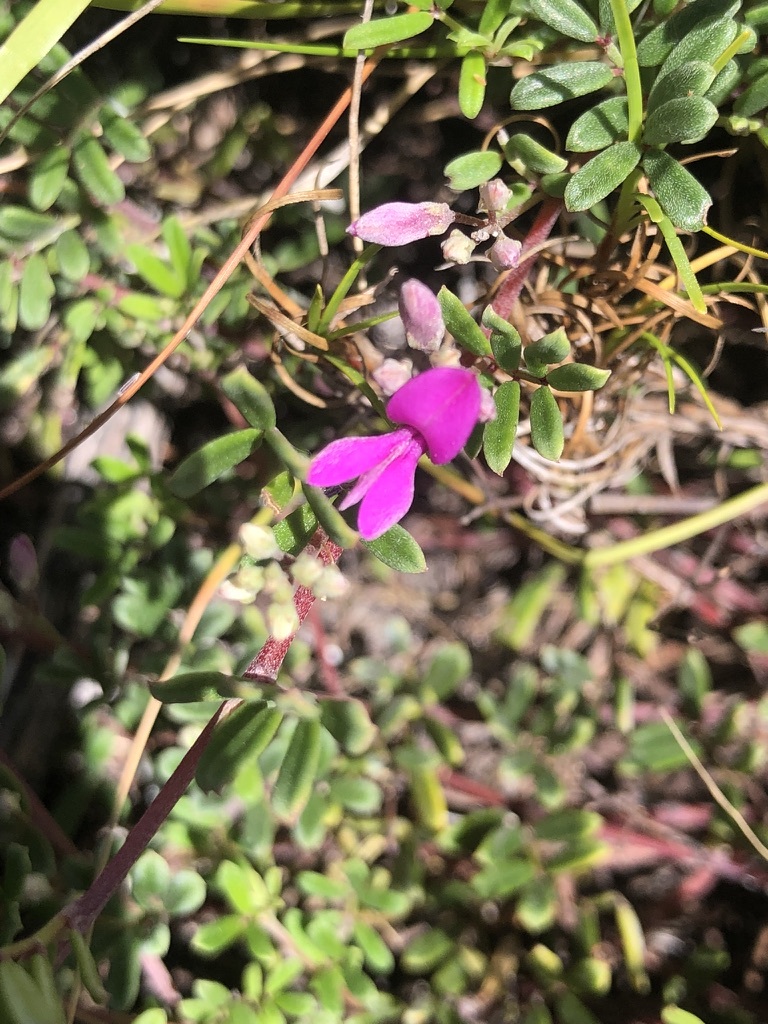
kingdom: Plantae
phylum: Tracheophyta
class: Magnoliopsida
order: Fabales
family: Fabaceae
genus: Indigofera
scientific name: Indigofera
